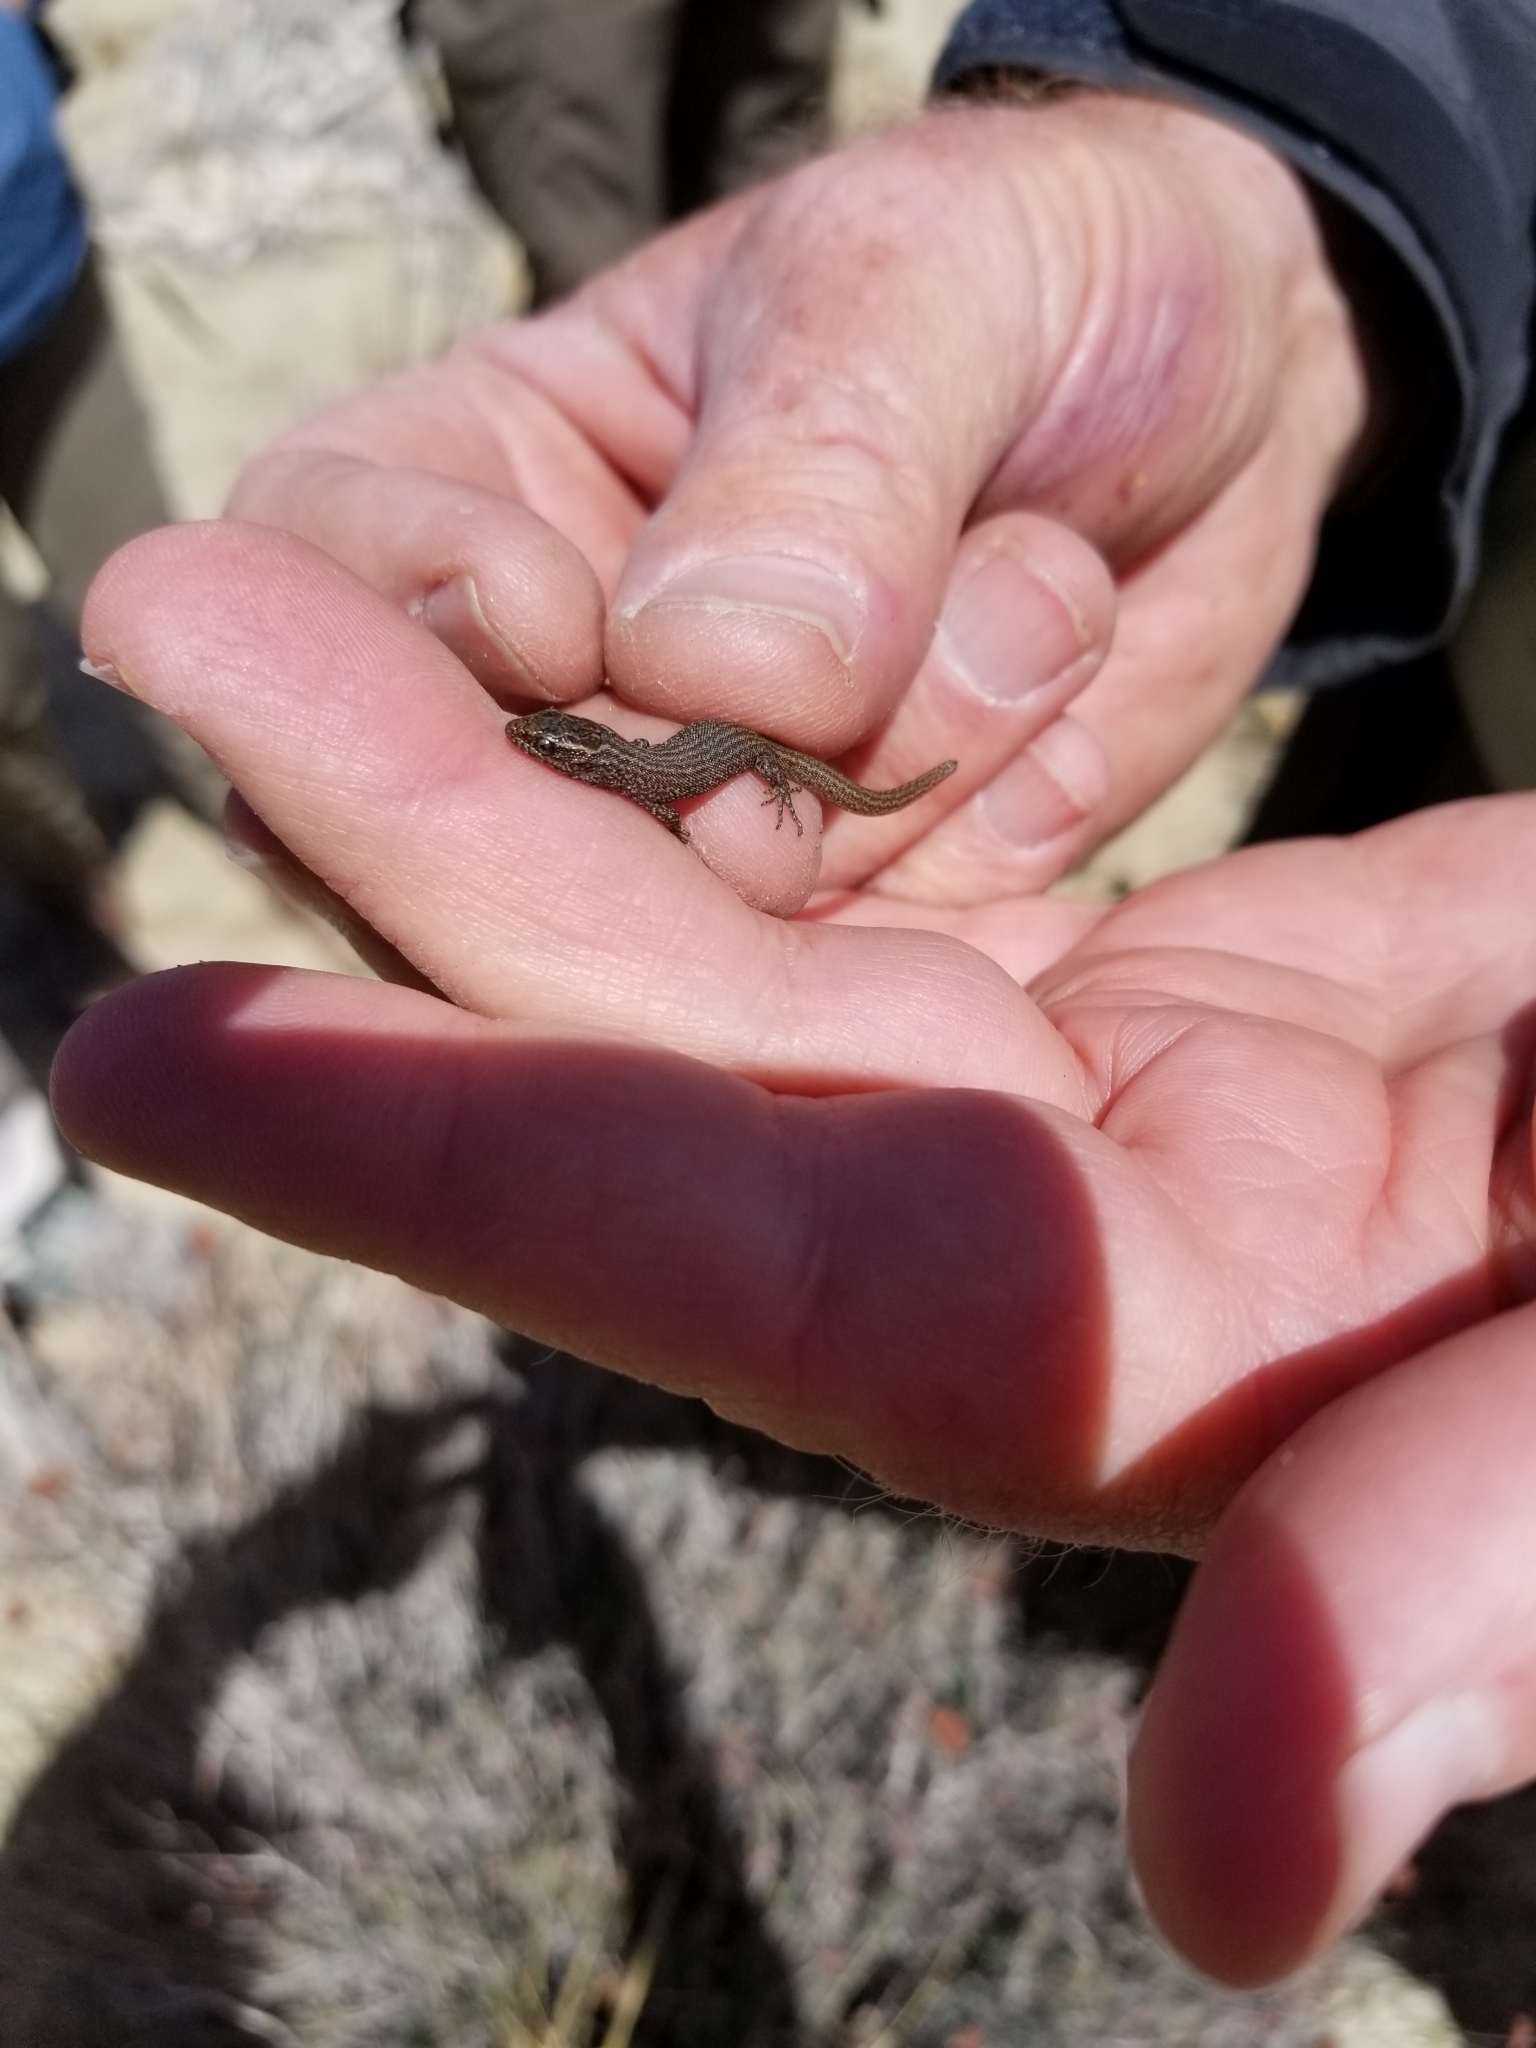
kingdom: Animalia
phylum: Chordata
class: Squamata
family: Xantusiidae
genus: Xantusia
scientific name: Xantusia vigilis
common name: Desert night lizard
